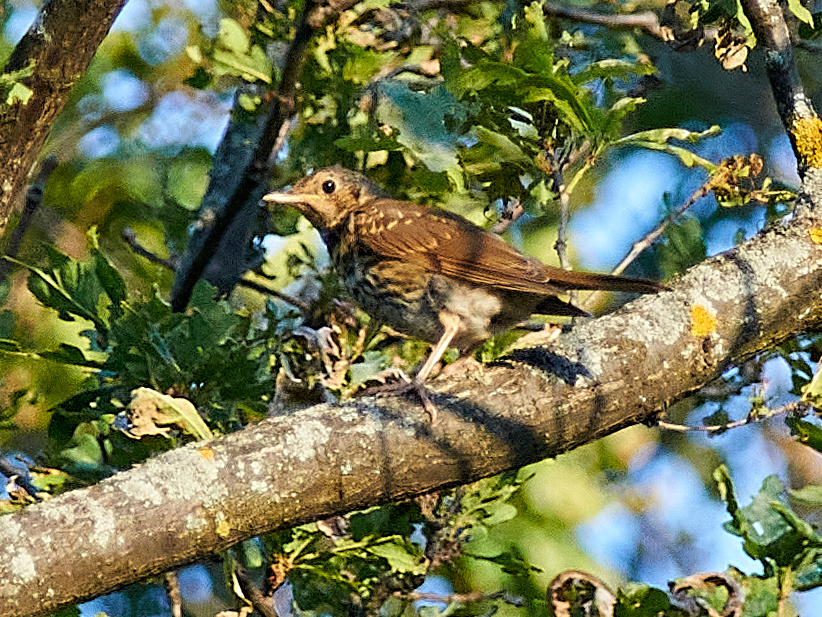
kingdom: Animalia
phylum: Chordata
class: Aves
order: Passeriformes
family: Turdidae
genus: Turdus
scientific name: Turdus pilaris
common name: Fieldfare
